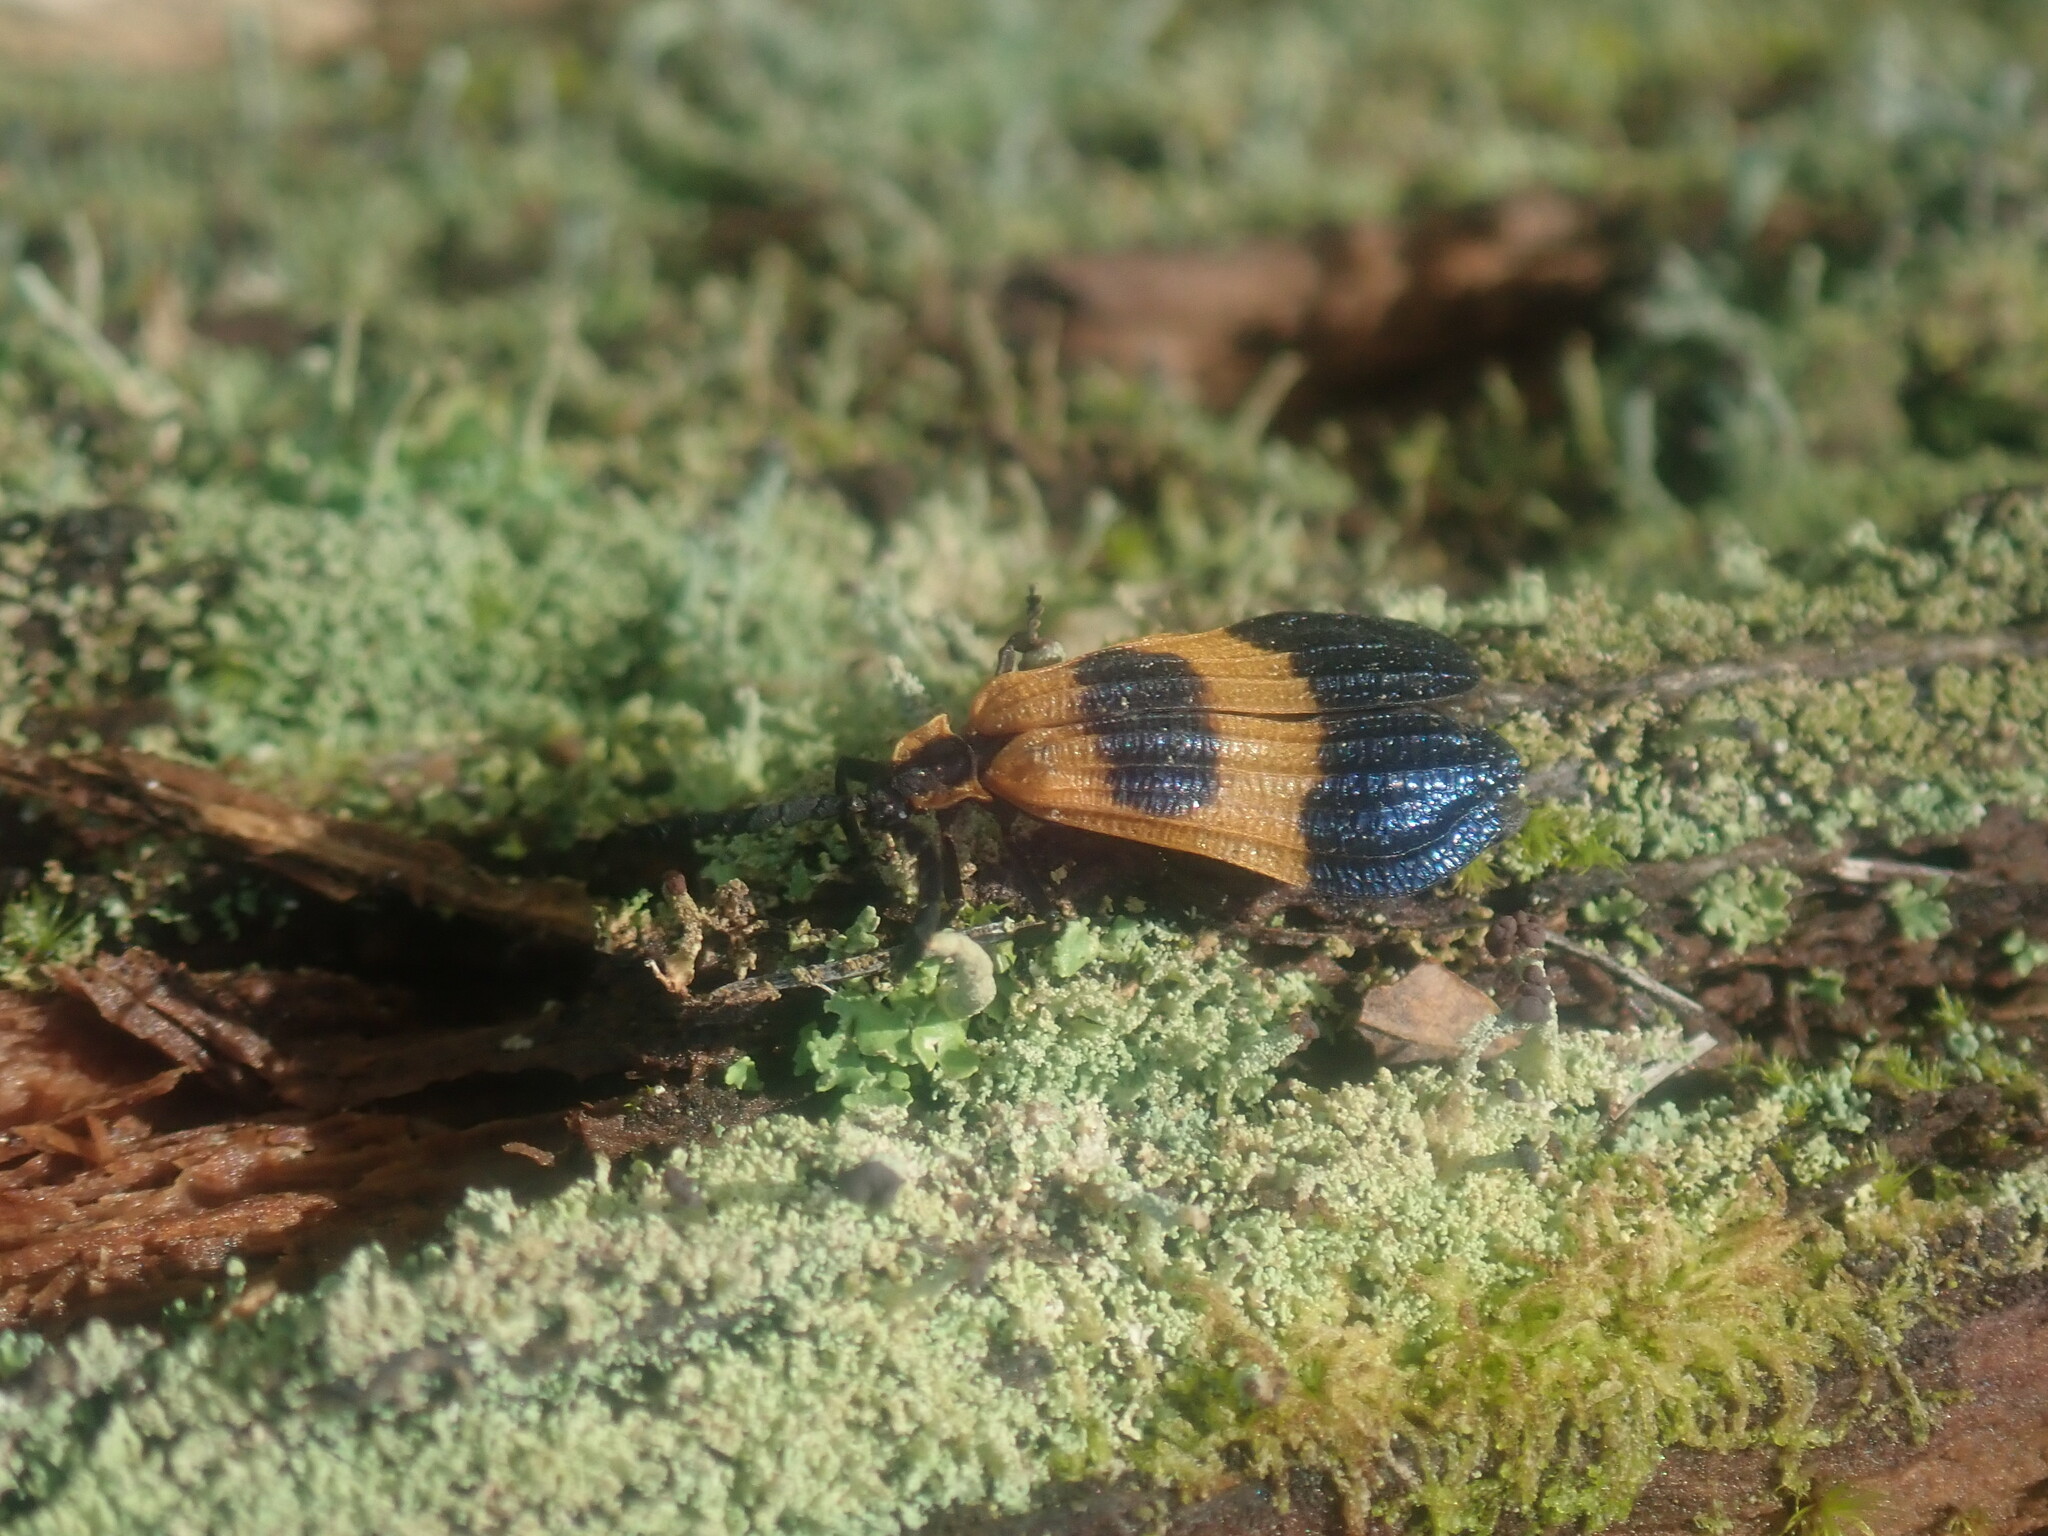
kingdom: Animalia
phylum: Arthropoda
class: Insecta
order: Coleoptera
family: Lycidae
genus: Calopteron
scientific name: Calopteron terminale
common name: End band net-winged beetle
